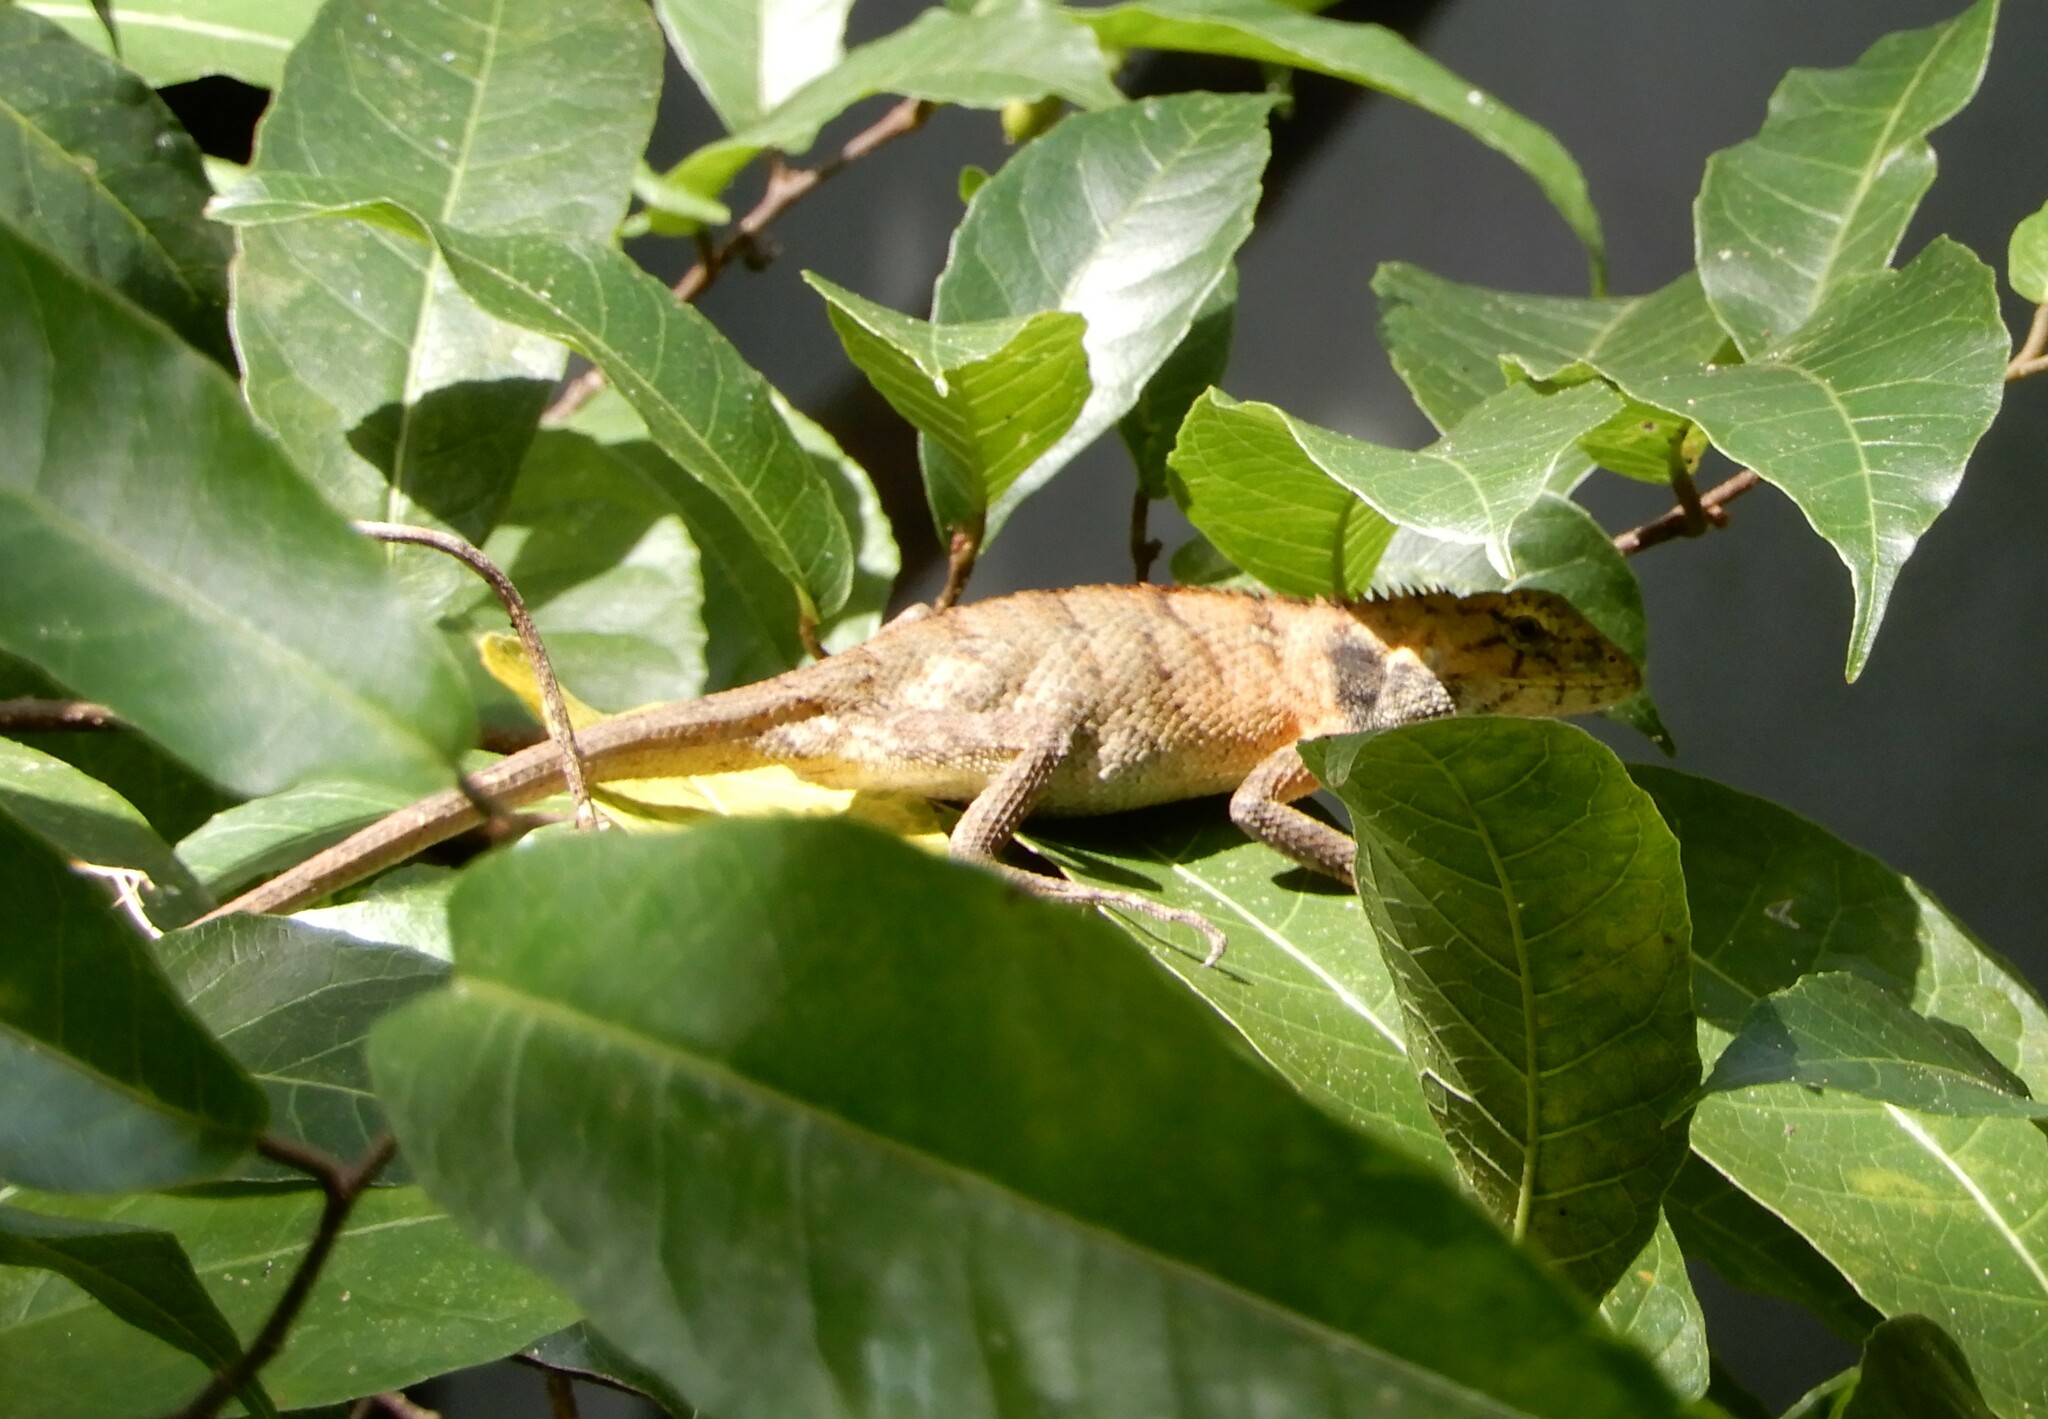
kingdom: Animalia
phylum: Chordata
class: Squamata
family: Agamidae
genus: Calotes
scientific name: Calotes versicolor
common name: Oriental garden lizard
